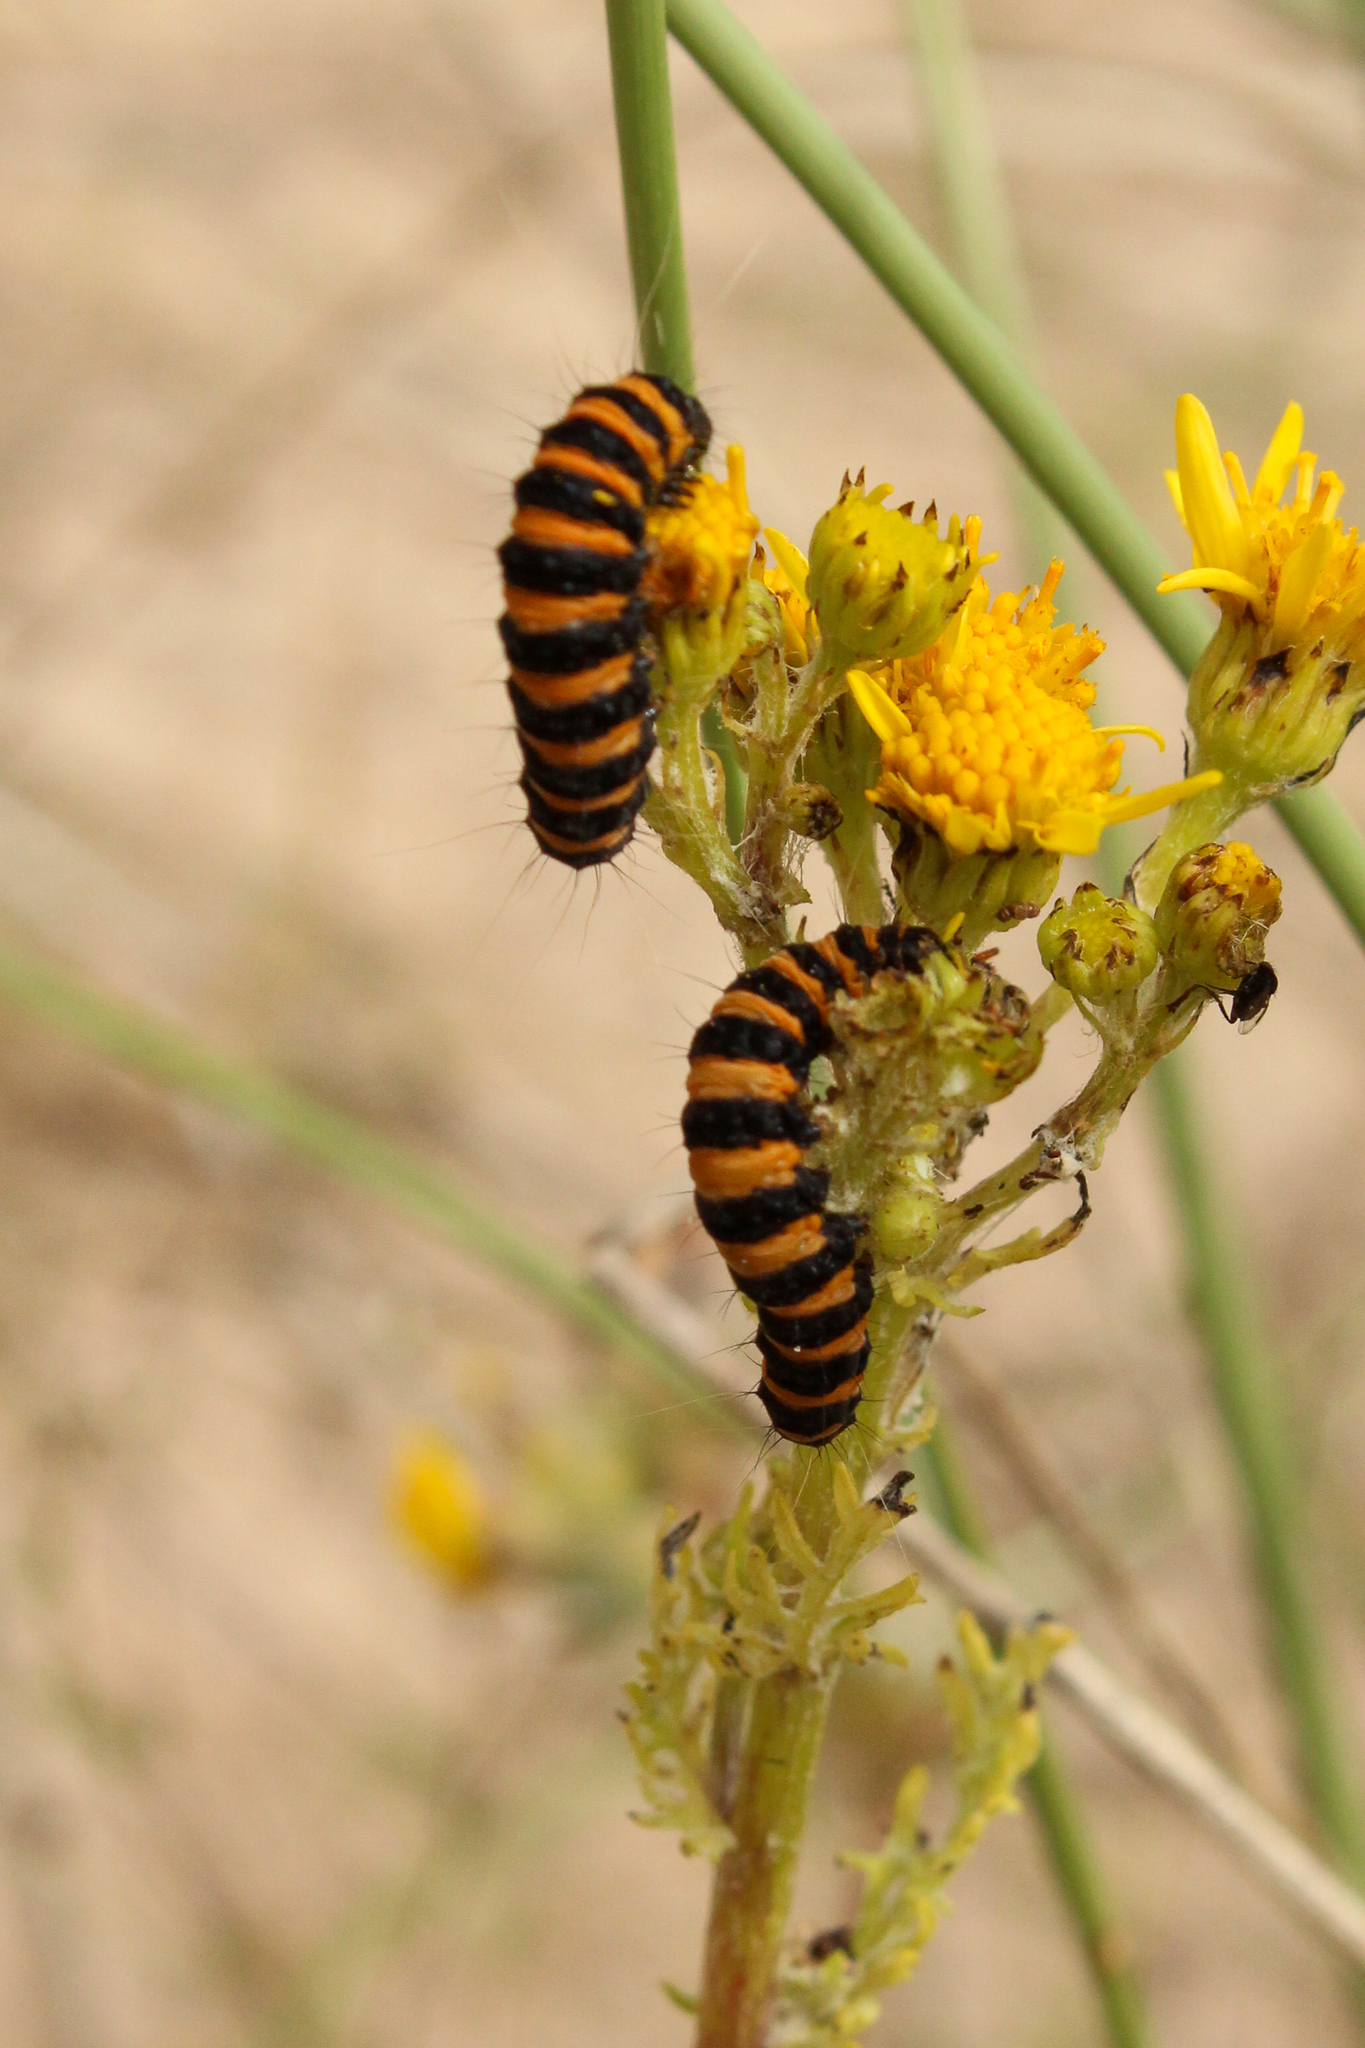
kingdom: Animalia
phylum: Arthropoda
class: Insecta
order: Lepidoptera
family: Erebidae
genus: Tyria
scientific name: Tyria jacobaeae
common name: Cinnabar
